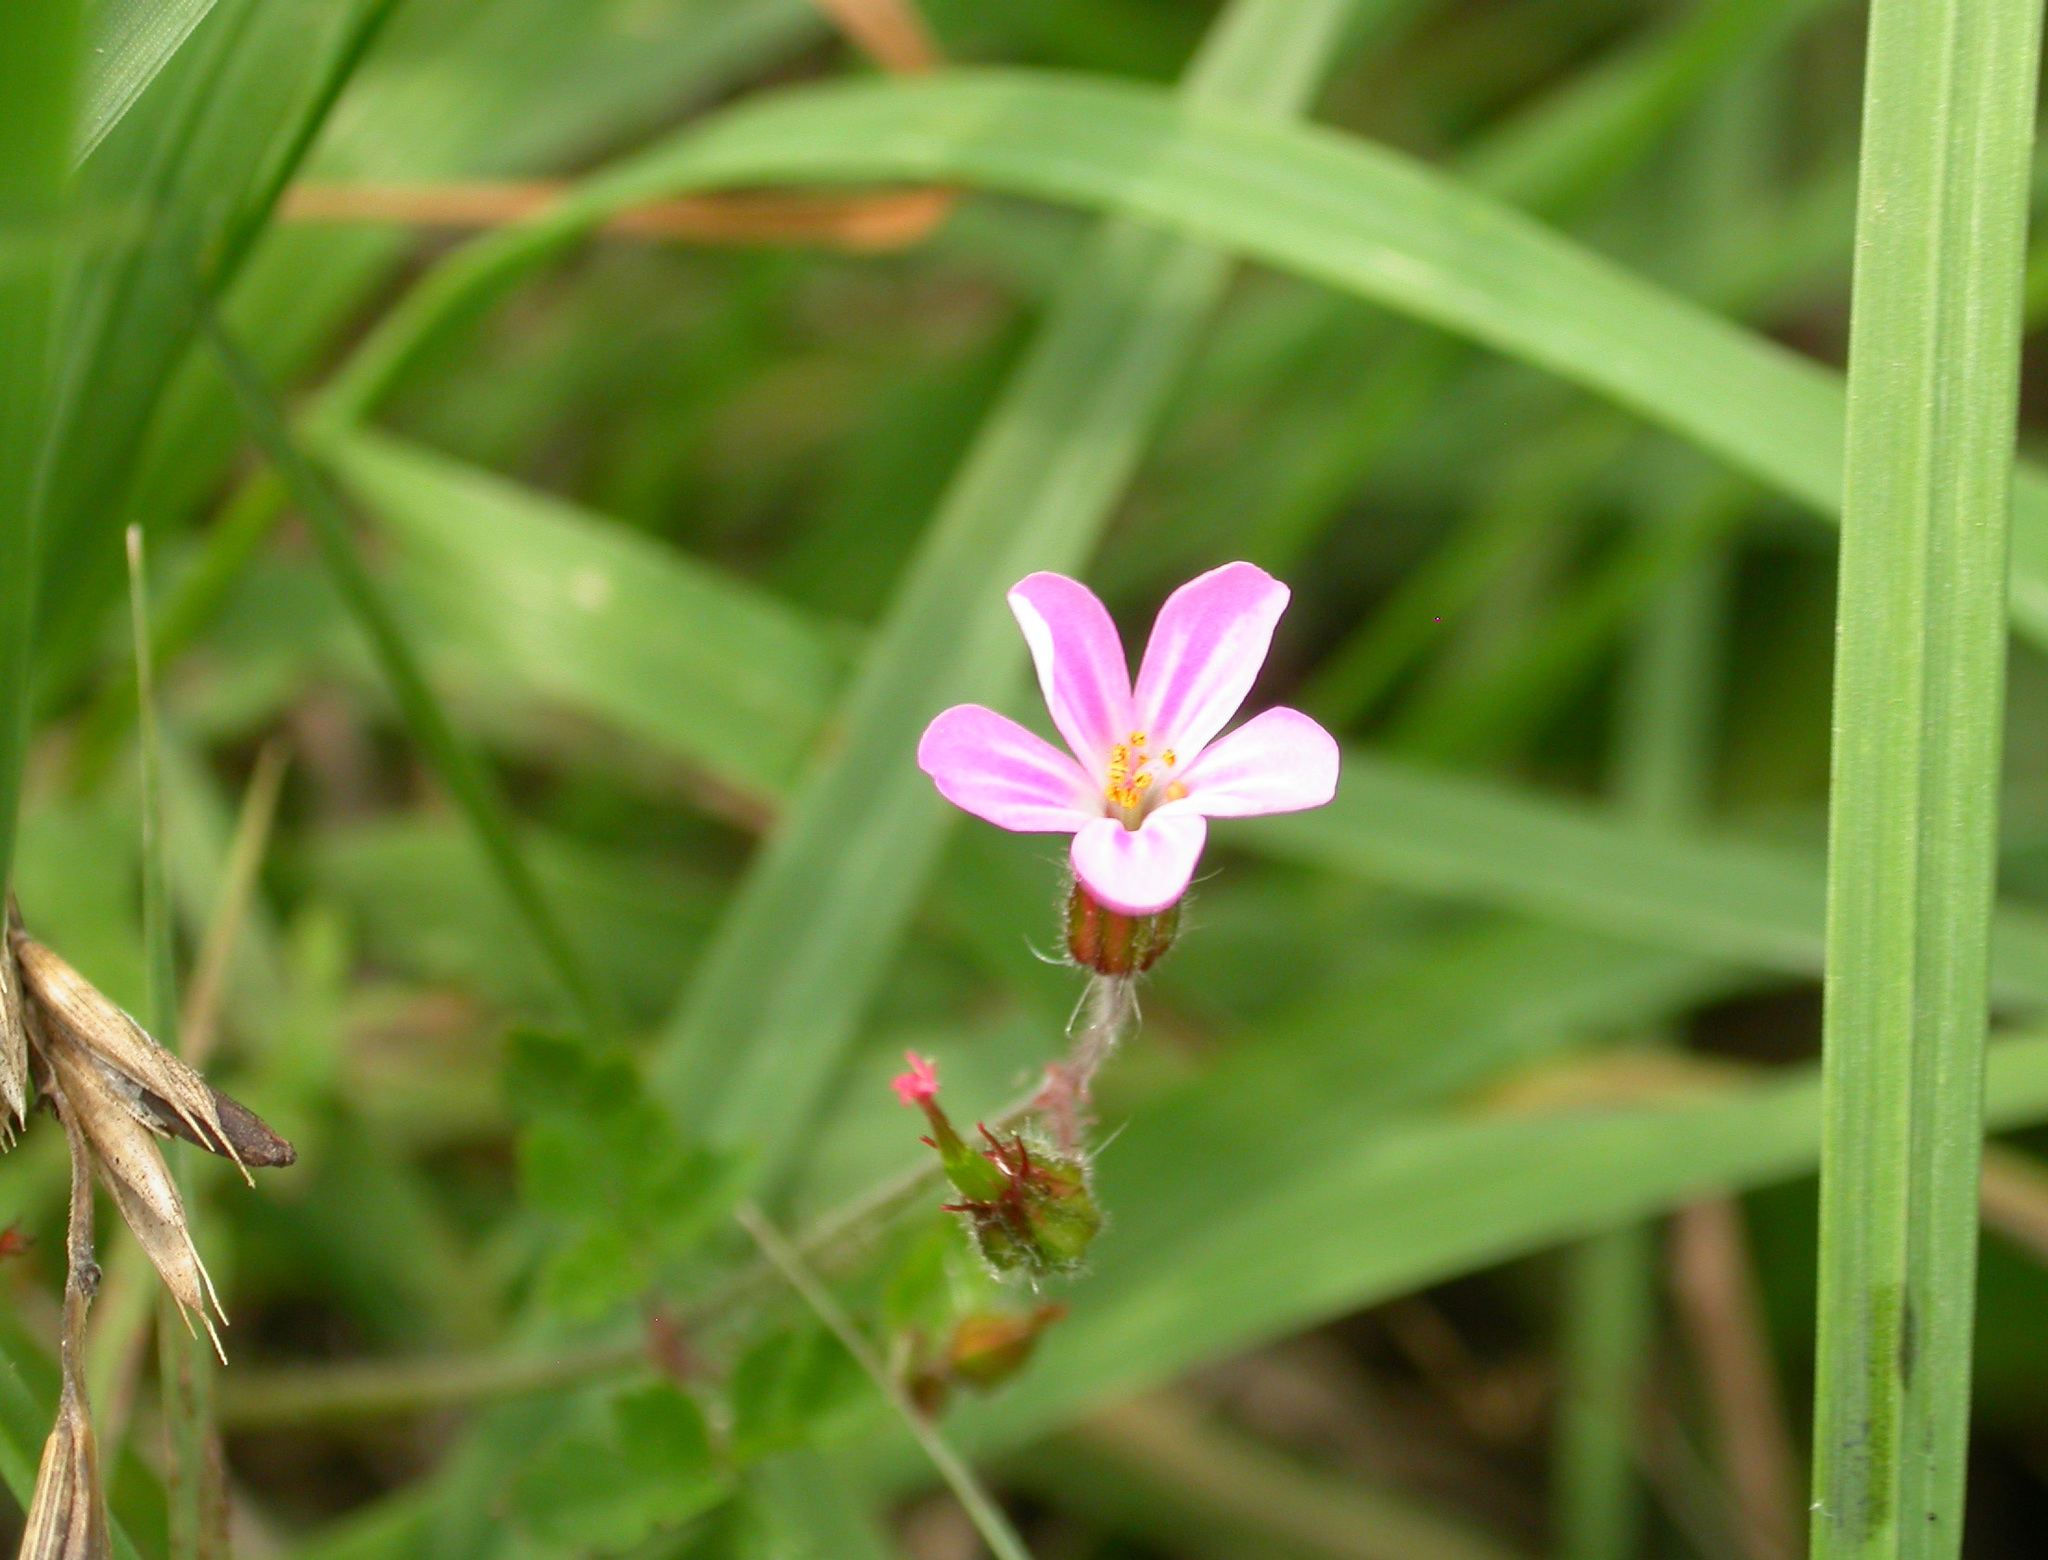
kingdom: Plantae
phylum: Tracheophyta
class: Magnoliopsida
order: Geraniales
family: Geraniaceae
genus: Geranium
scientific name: Geranium purpureum
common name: Little-robin
